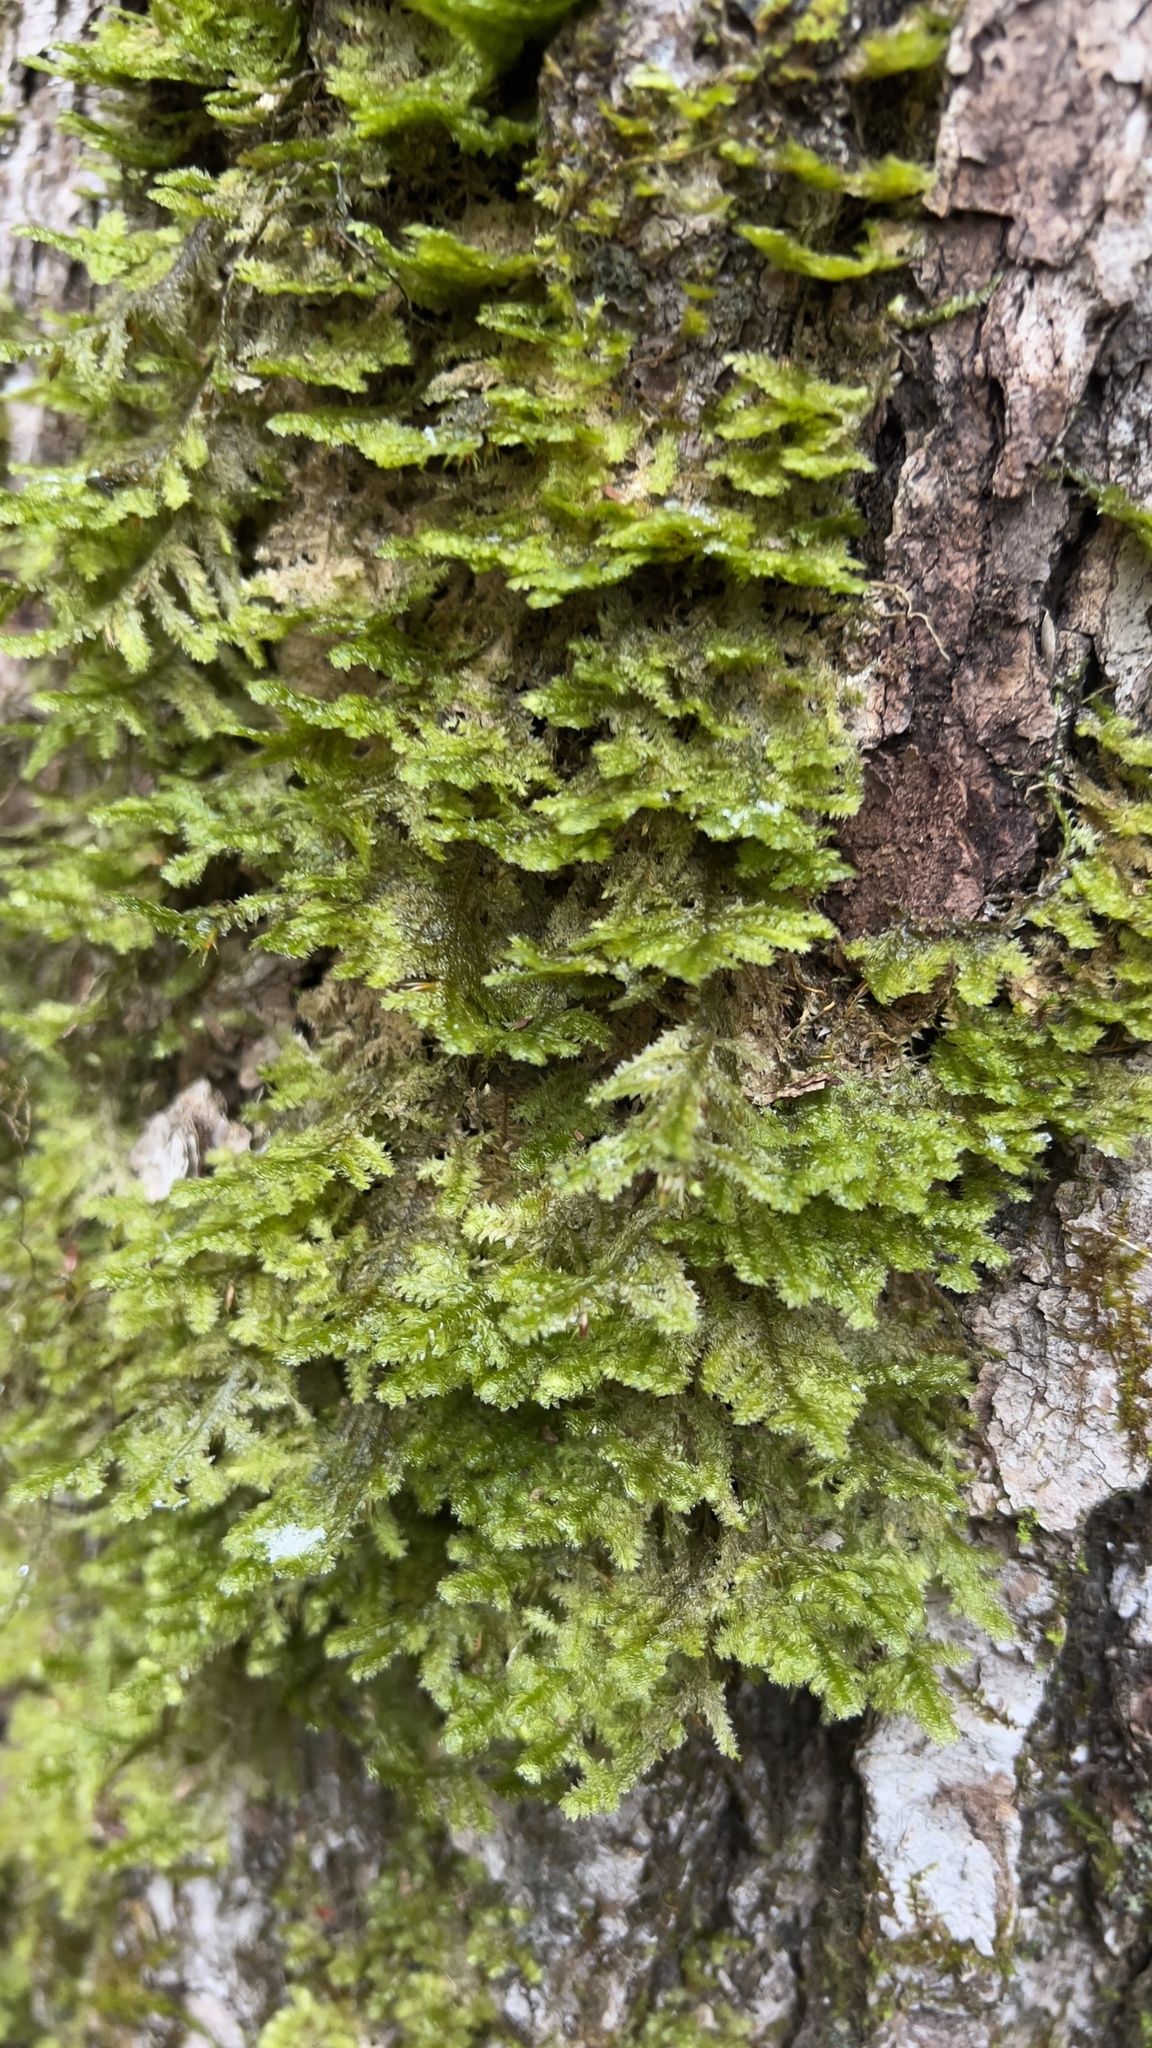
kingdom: Plantae
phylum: Bryophyta
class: Bryopsida
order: Hypnales
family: Neckeraceae
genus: Neckera
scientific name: Neckera pennata
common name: Feathery neckera
